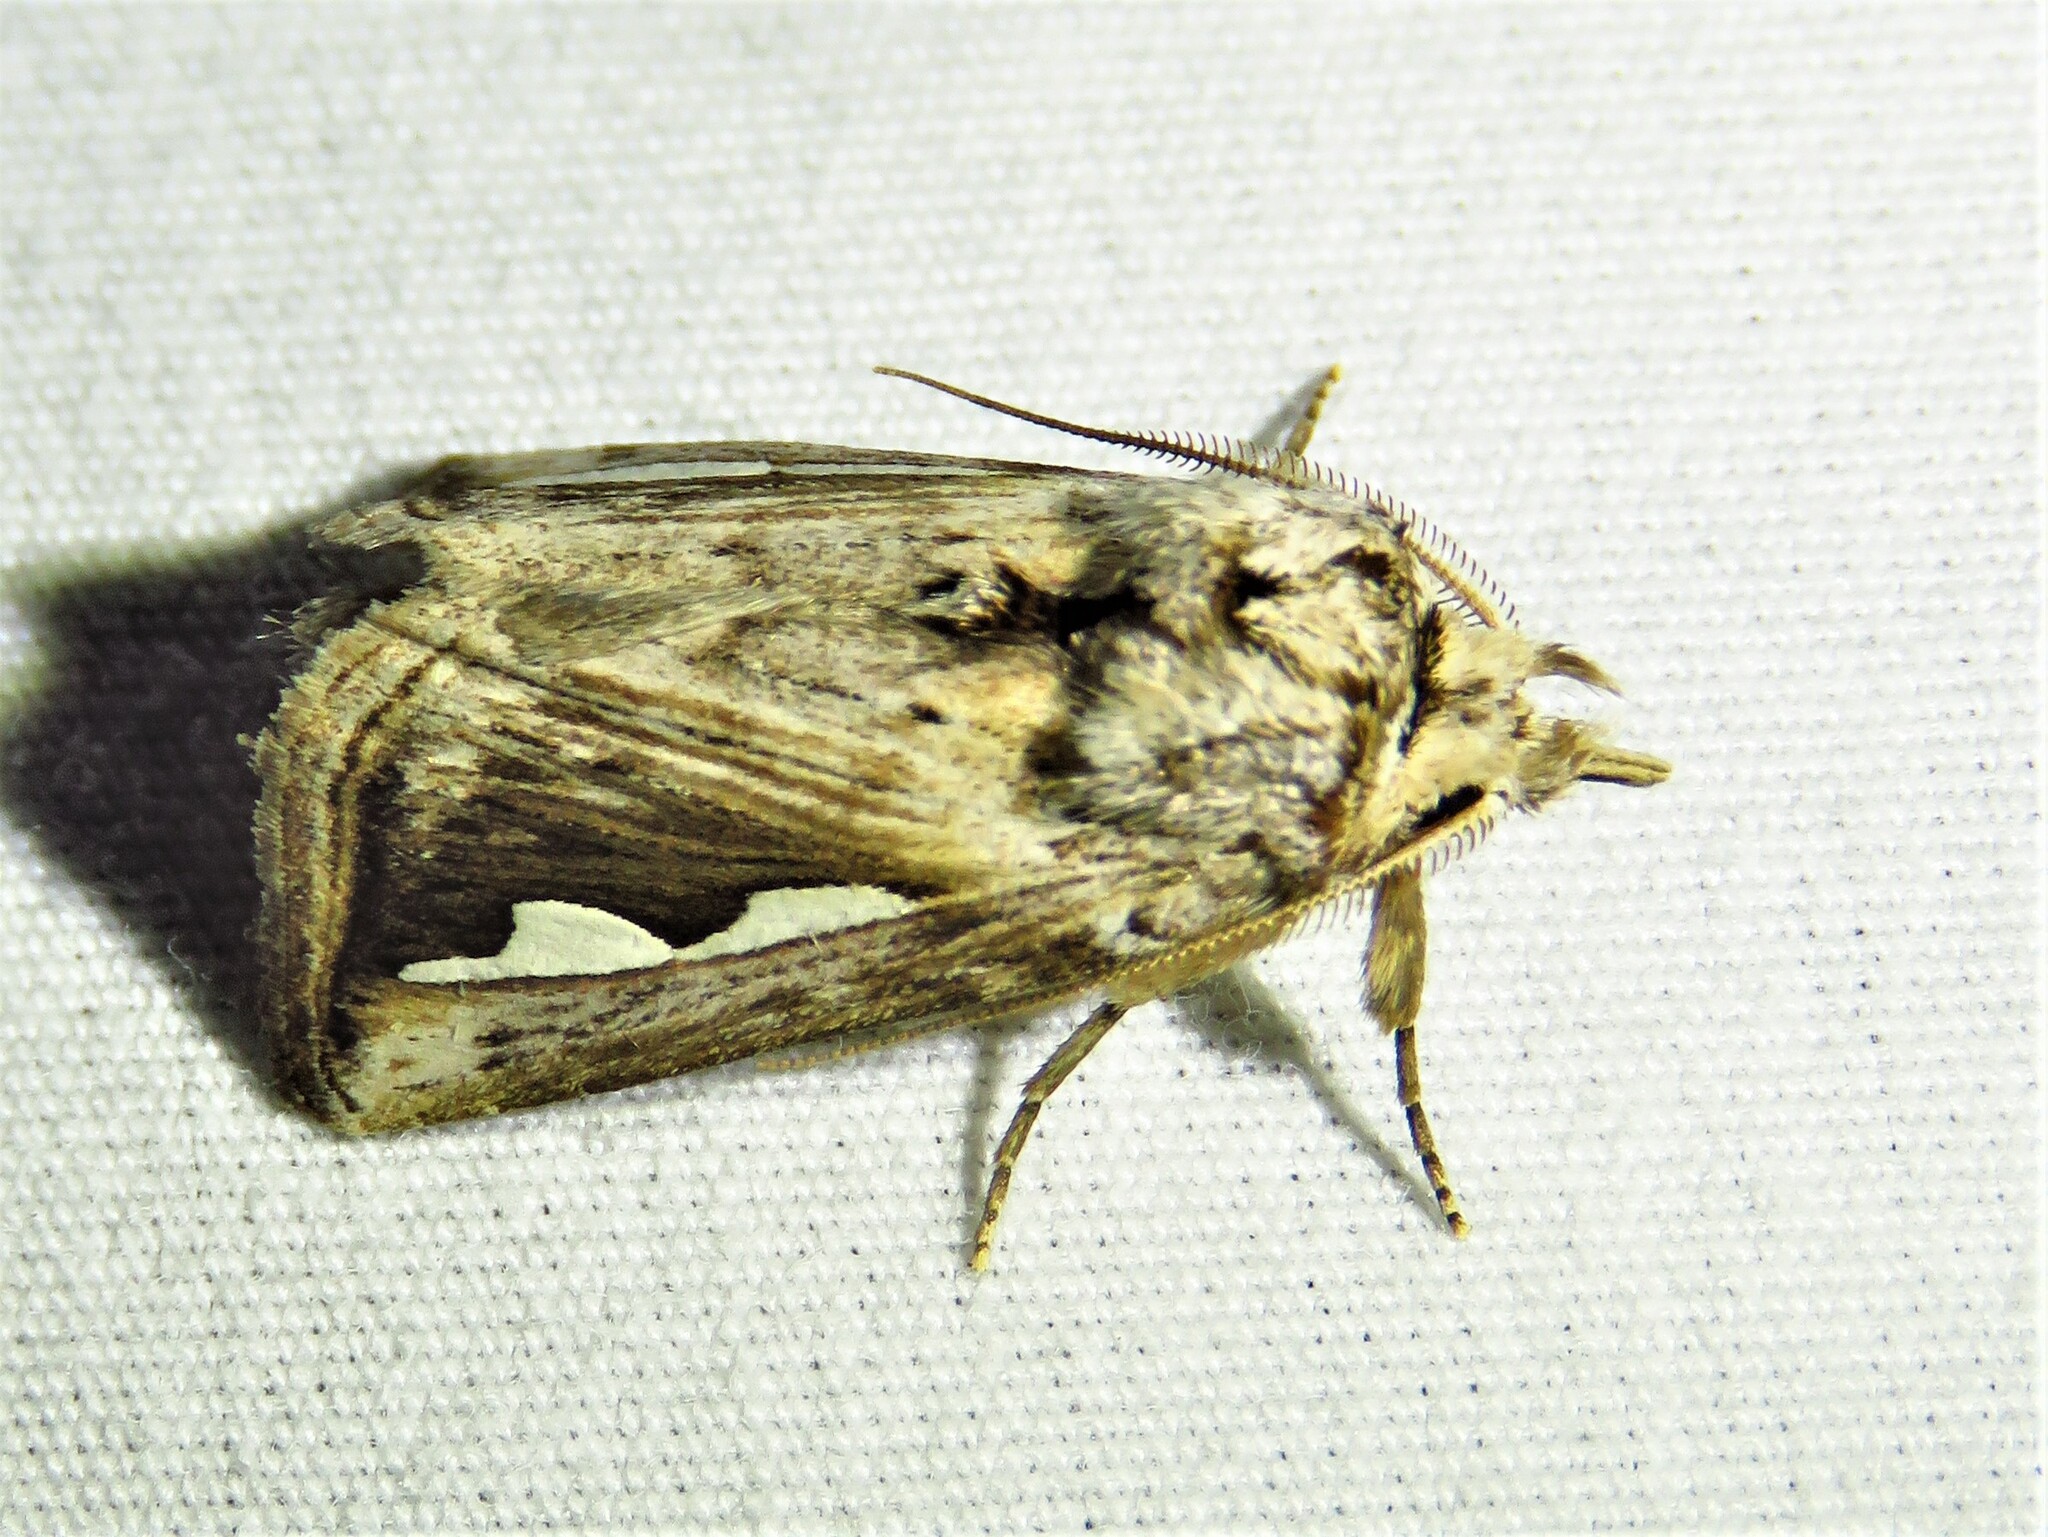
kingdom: Animalia
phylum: Arthropoda
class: Insecta
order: Lepidoptera
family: Notodontidae
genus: Didugua
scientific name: Didugua argentilinea
